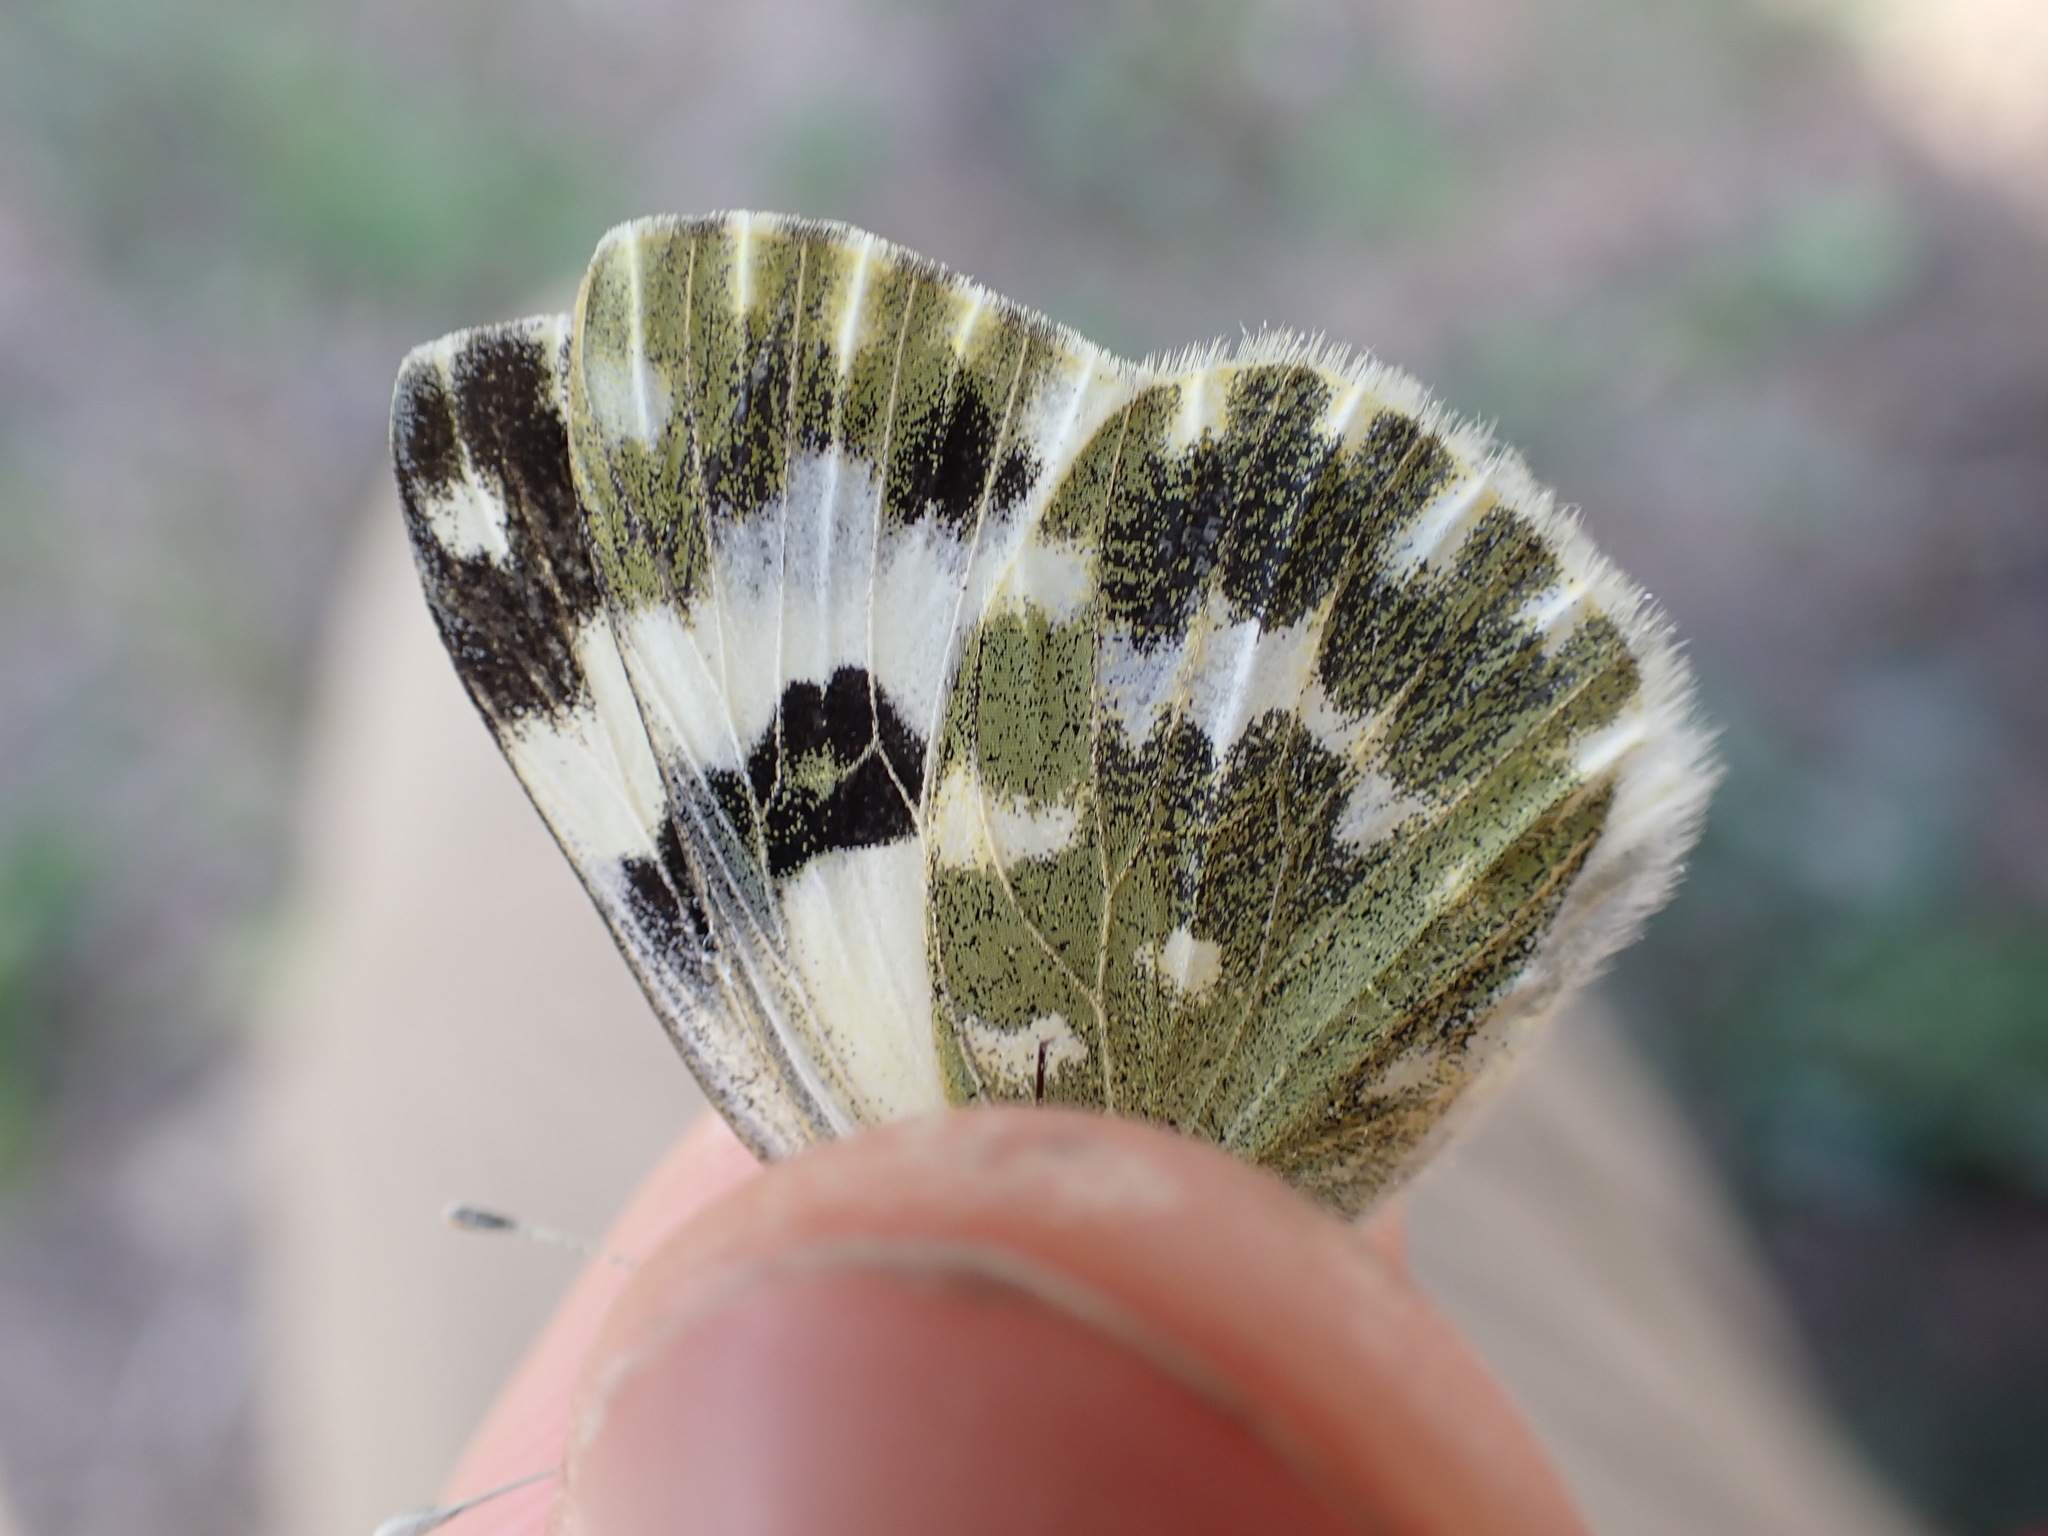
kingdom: Animalia
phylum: Arthropoda
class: Insecta
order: Lepidoptera
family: Pieridae
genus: Pontia
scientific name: Pontia daplidice
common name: Bath white
